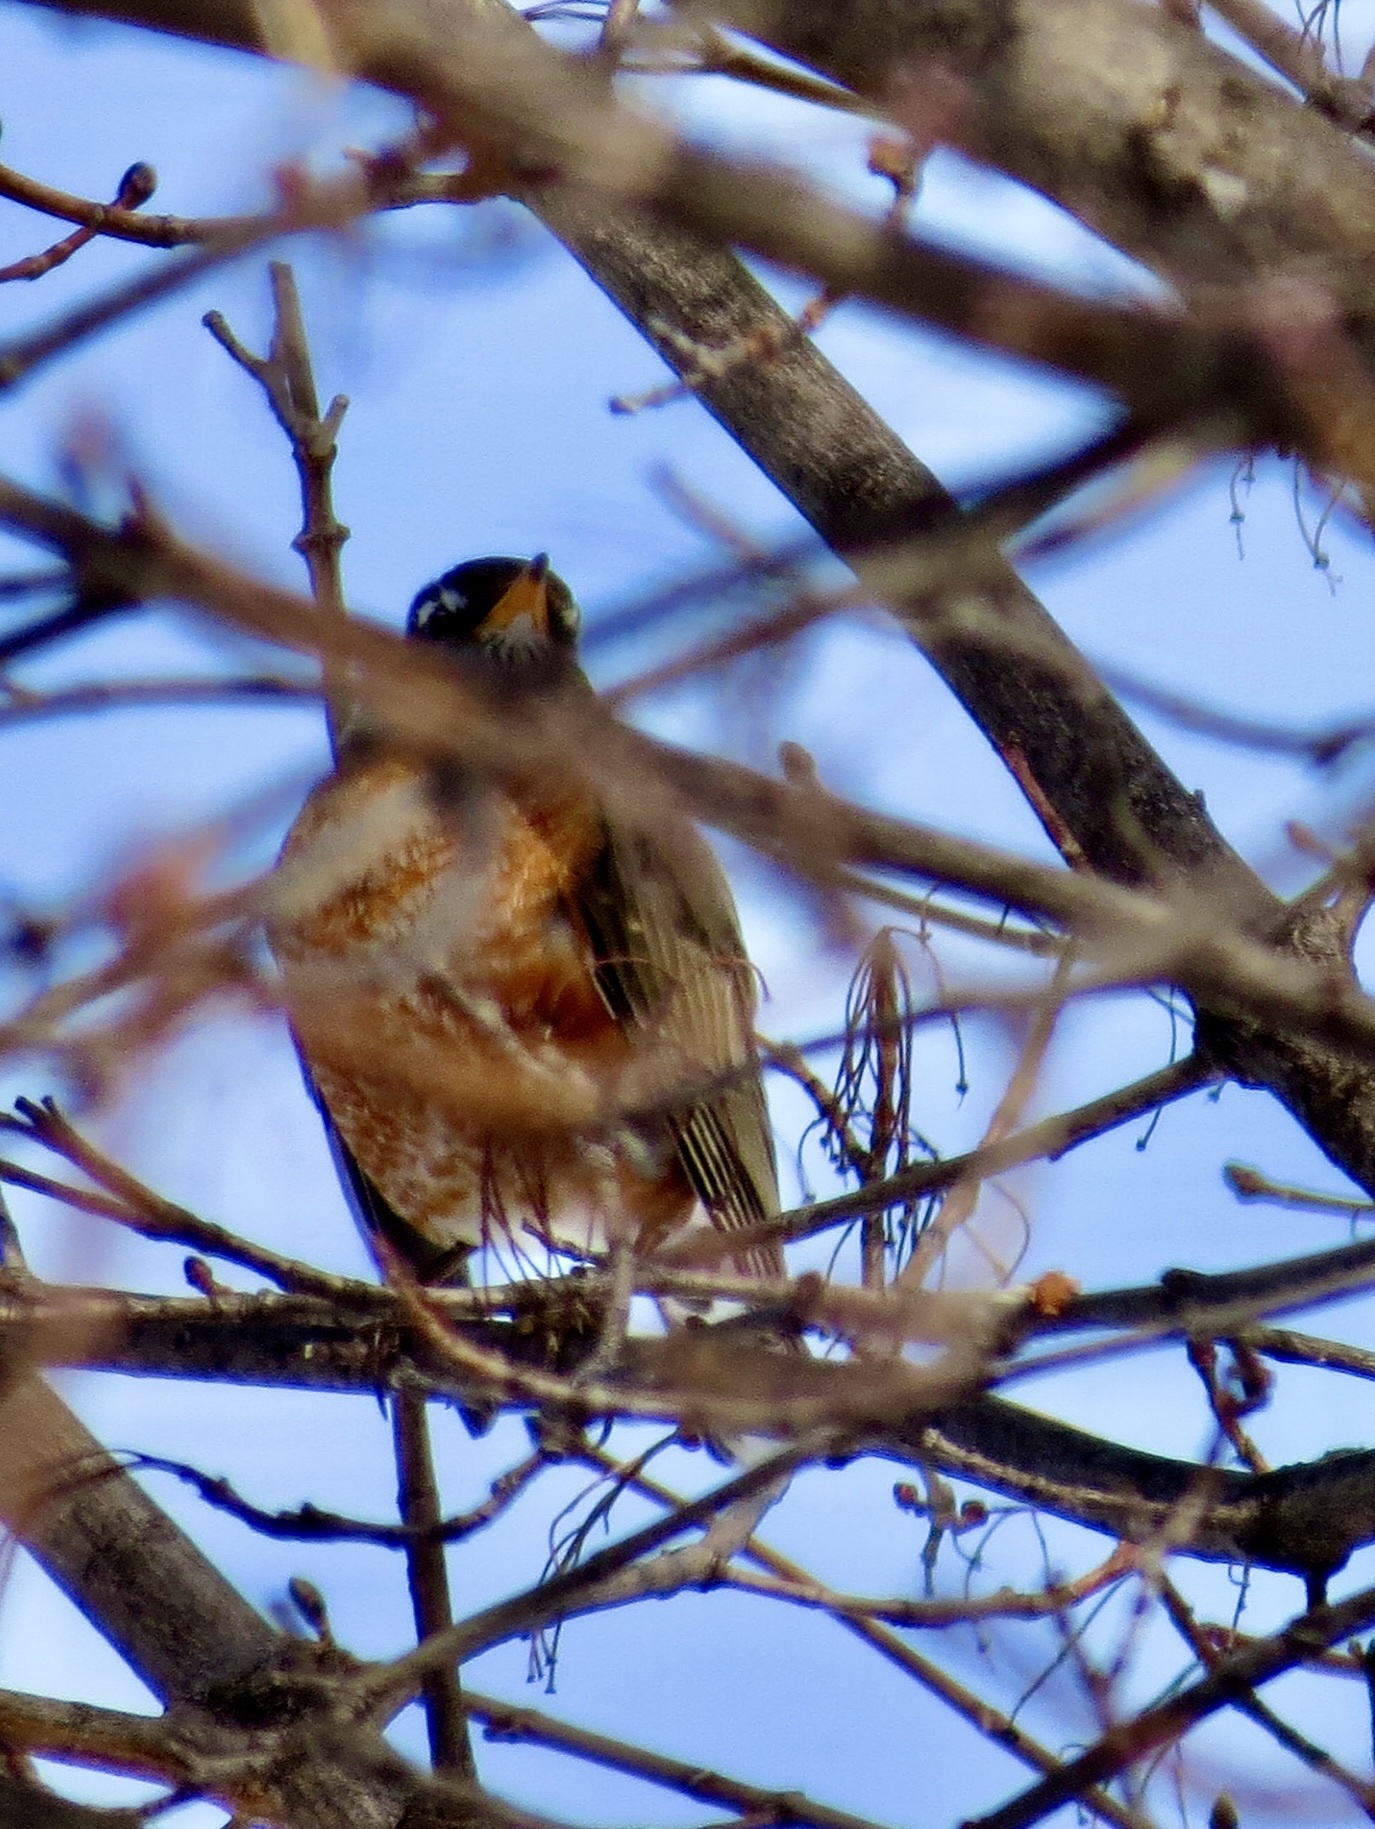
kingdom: Animalia
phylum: Chordata
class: Aves
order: Passeriformes
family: Turdidae
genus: Turdus
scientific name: Turdus migratorius
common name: American robin
